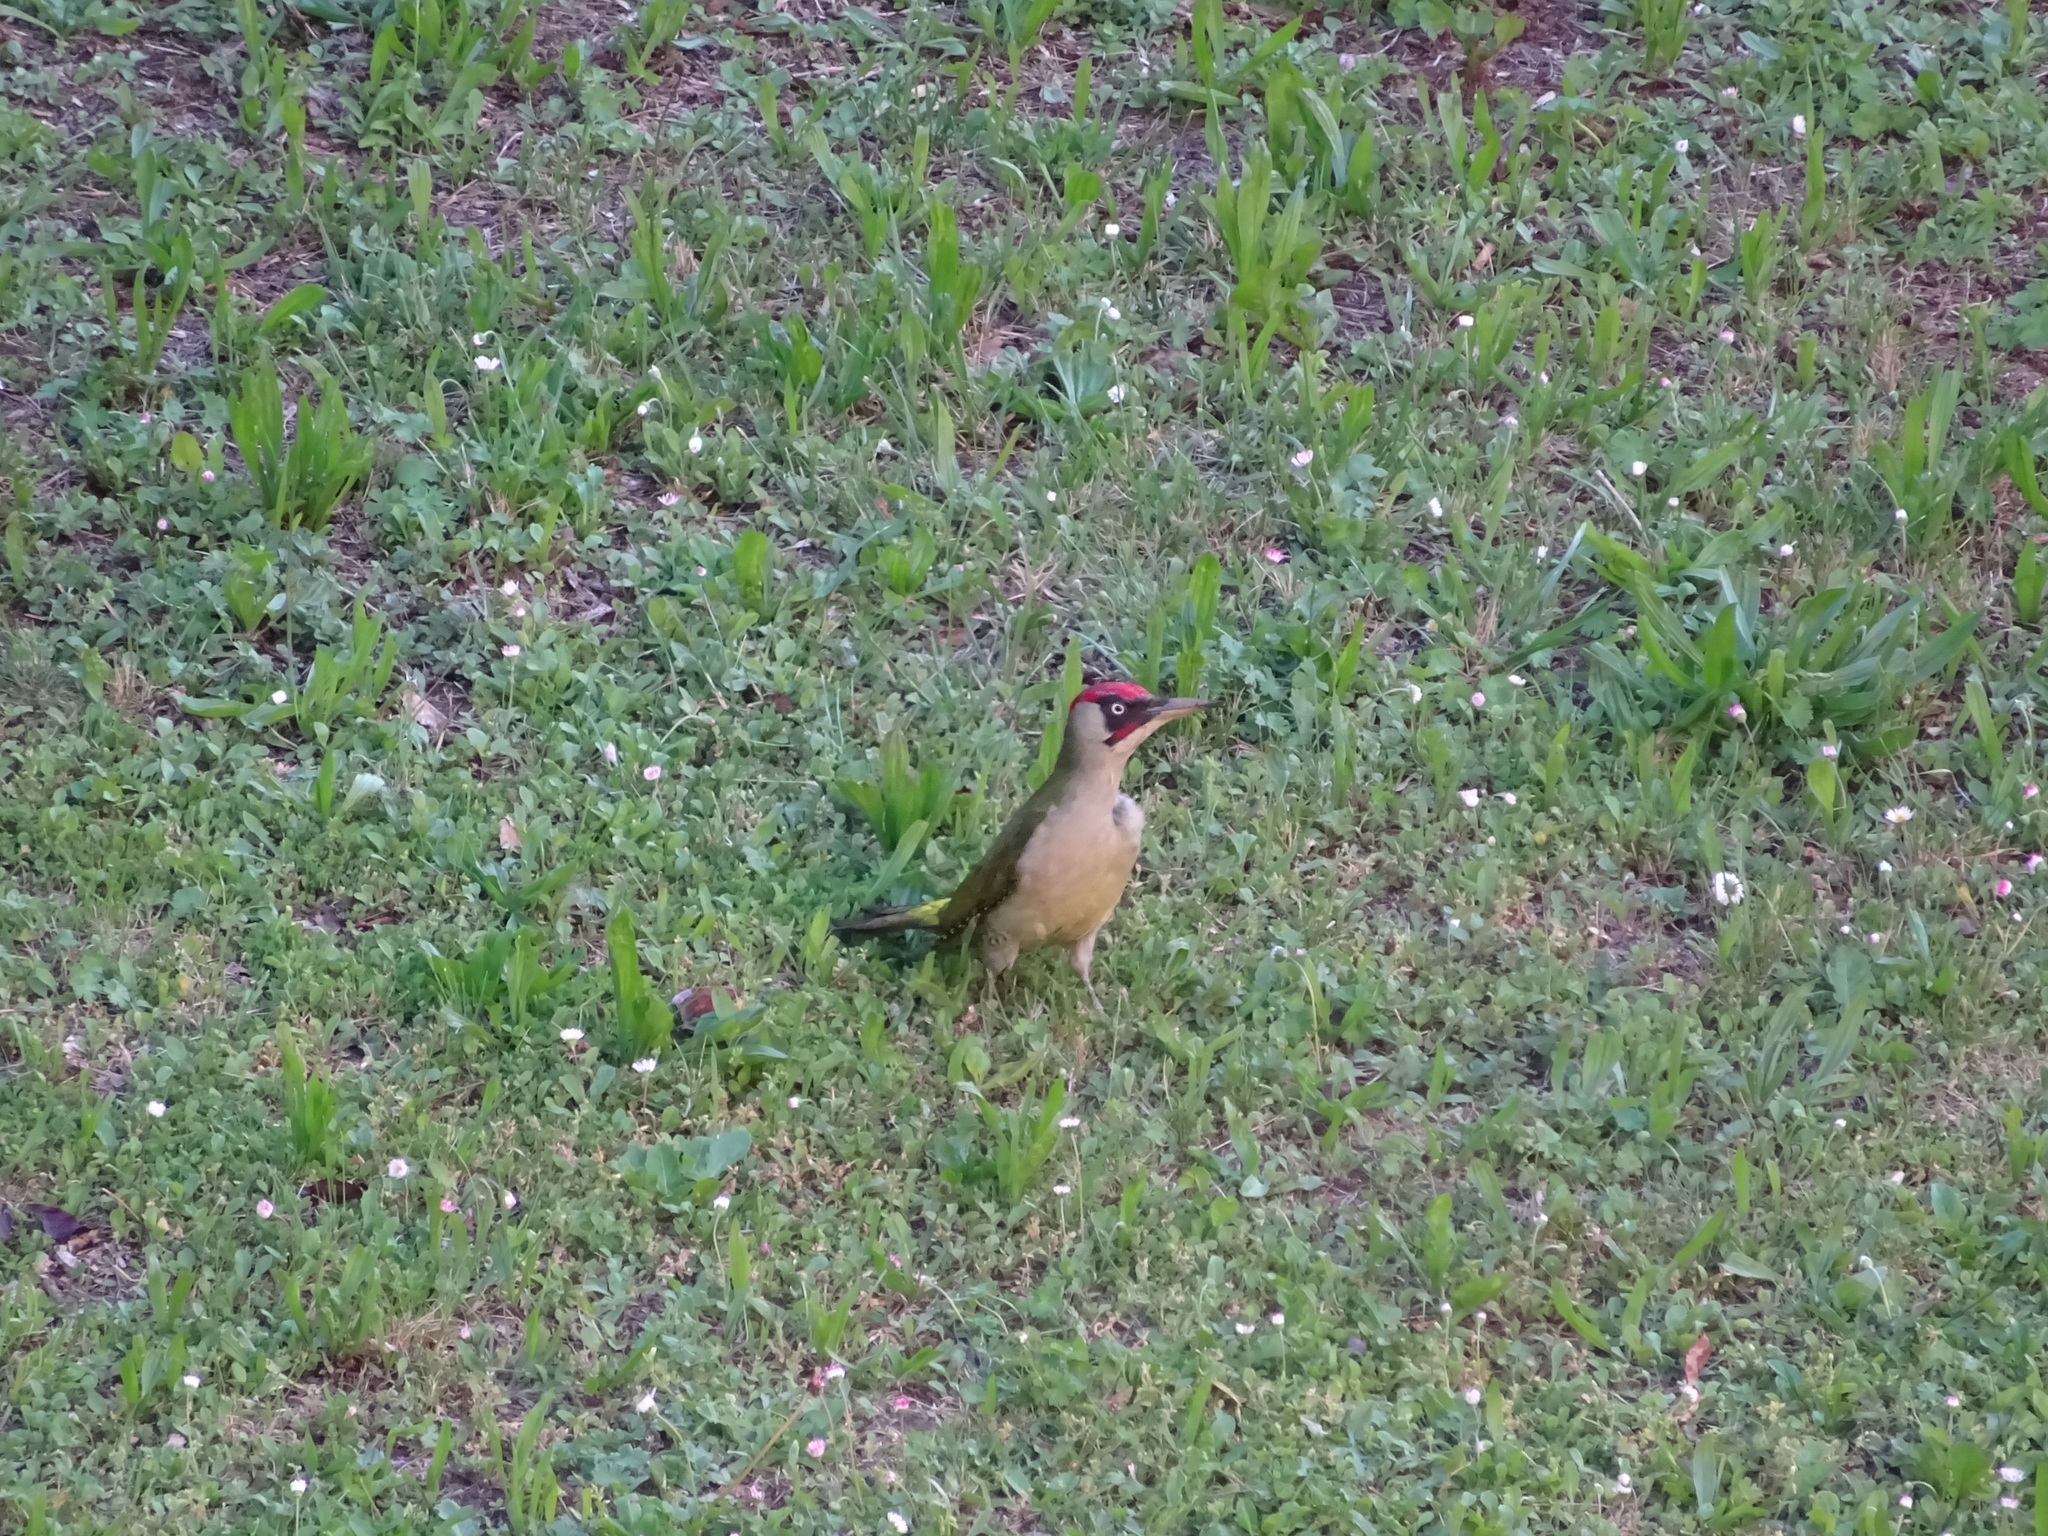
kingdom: Animalia
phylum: Chordata
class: Aves
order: Piciformes
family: Picidae
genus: Picus
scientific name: Picus viridis
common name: European green woodpecker
